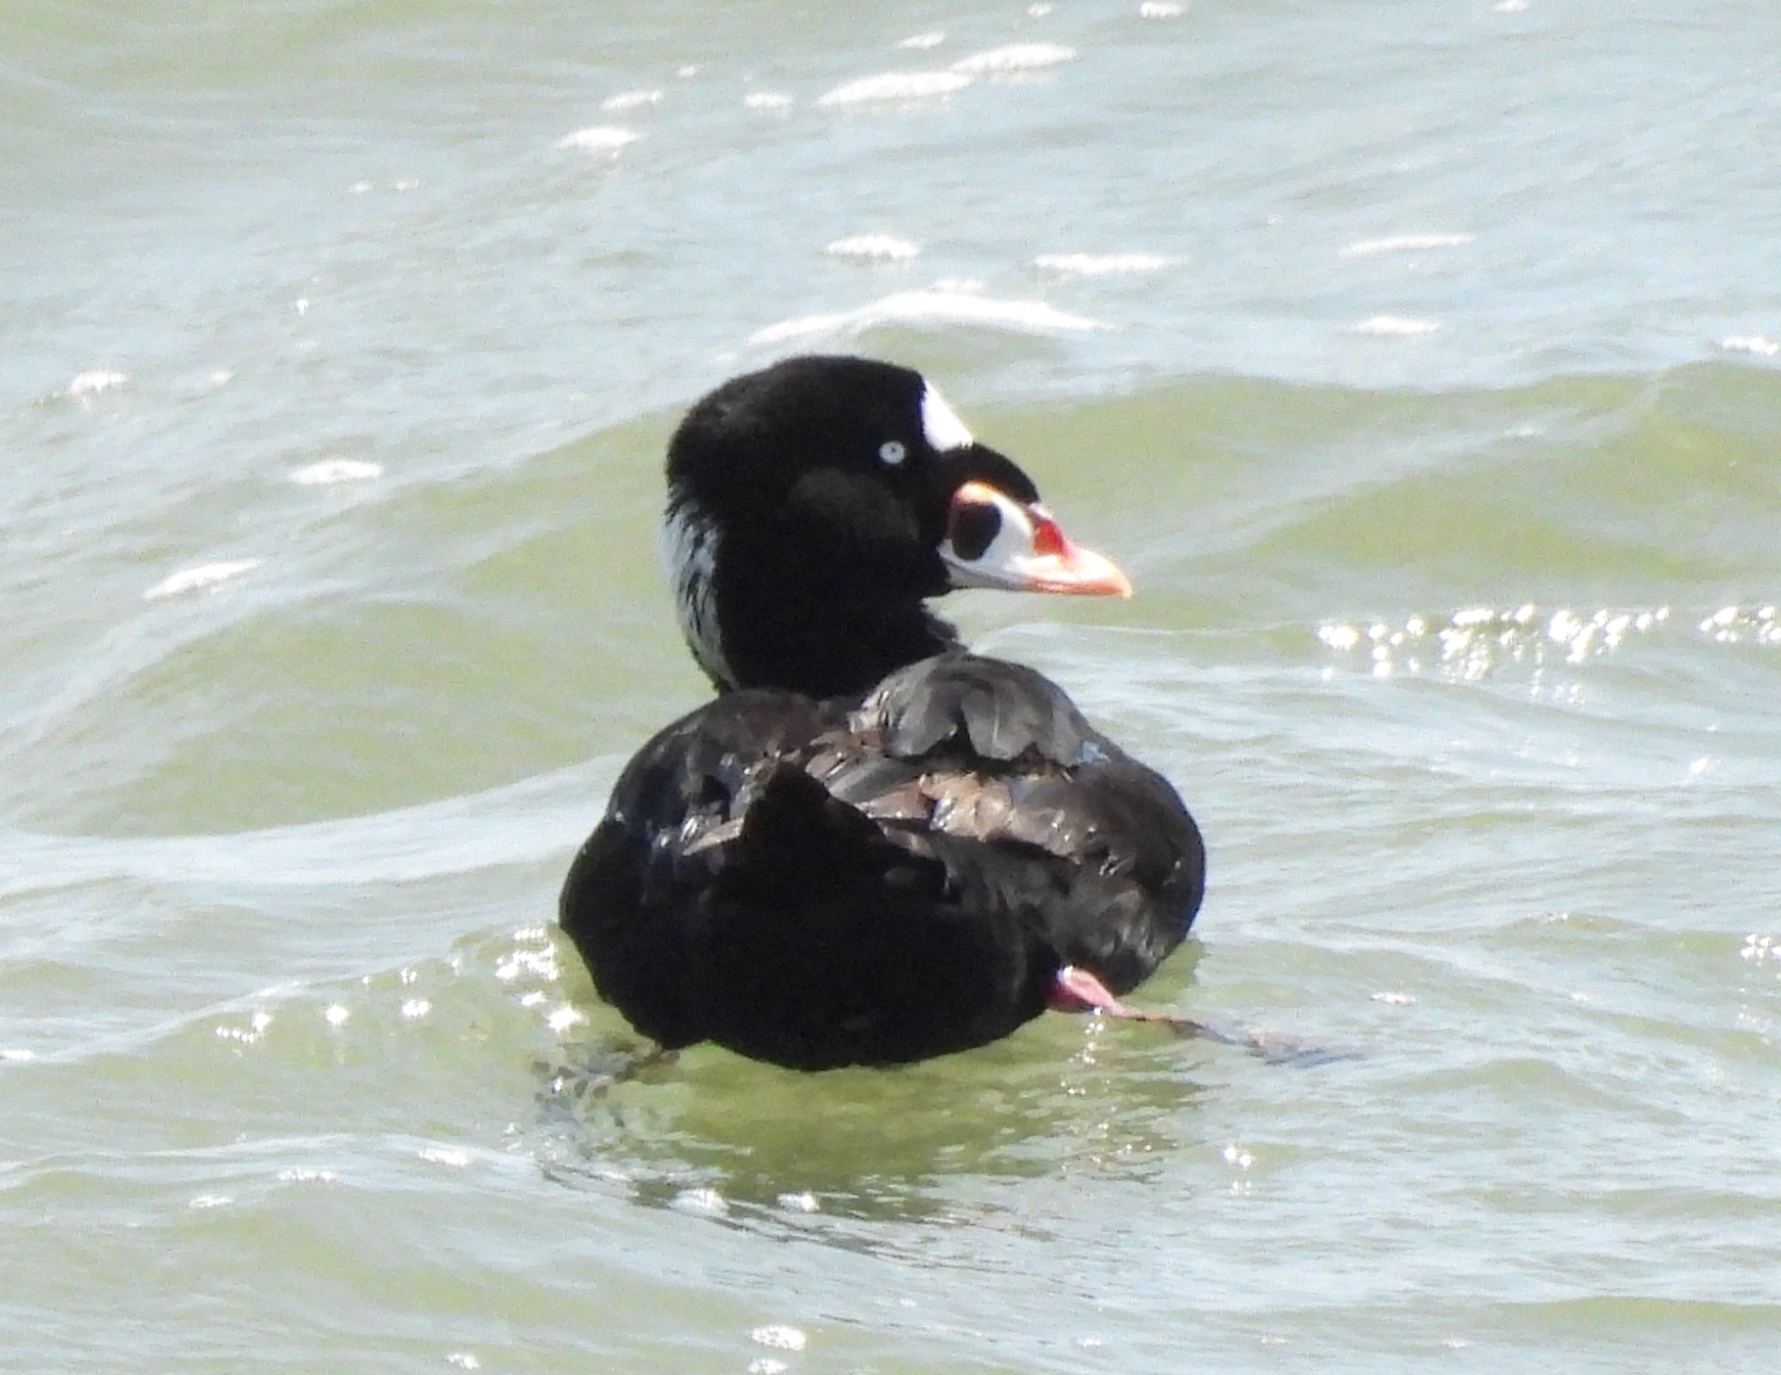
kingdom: Animalia
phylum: Chordata
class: Aves
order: Anseriformes
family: Anatidae
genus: Melanitta
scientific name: Melanitta perspicillata
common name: Surf scoter
